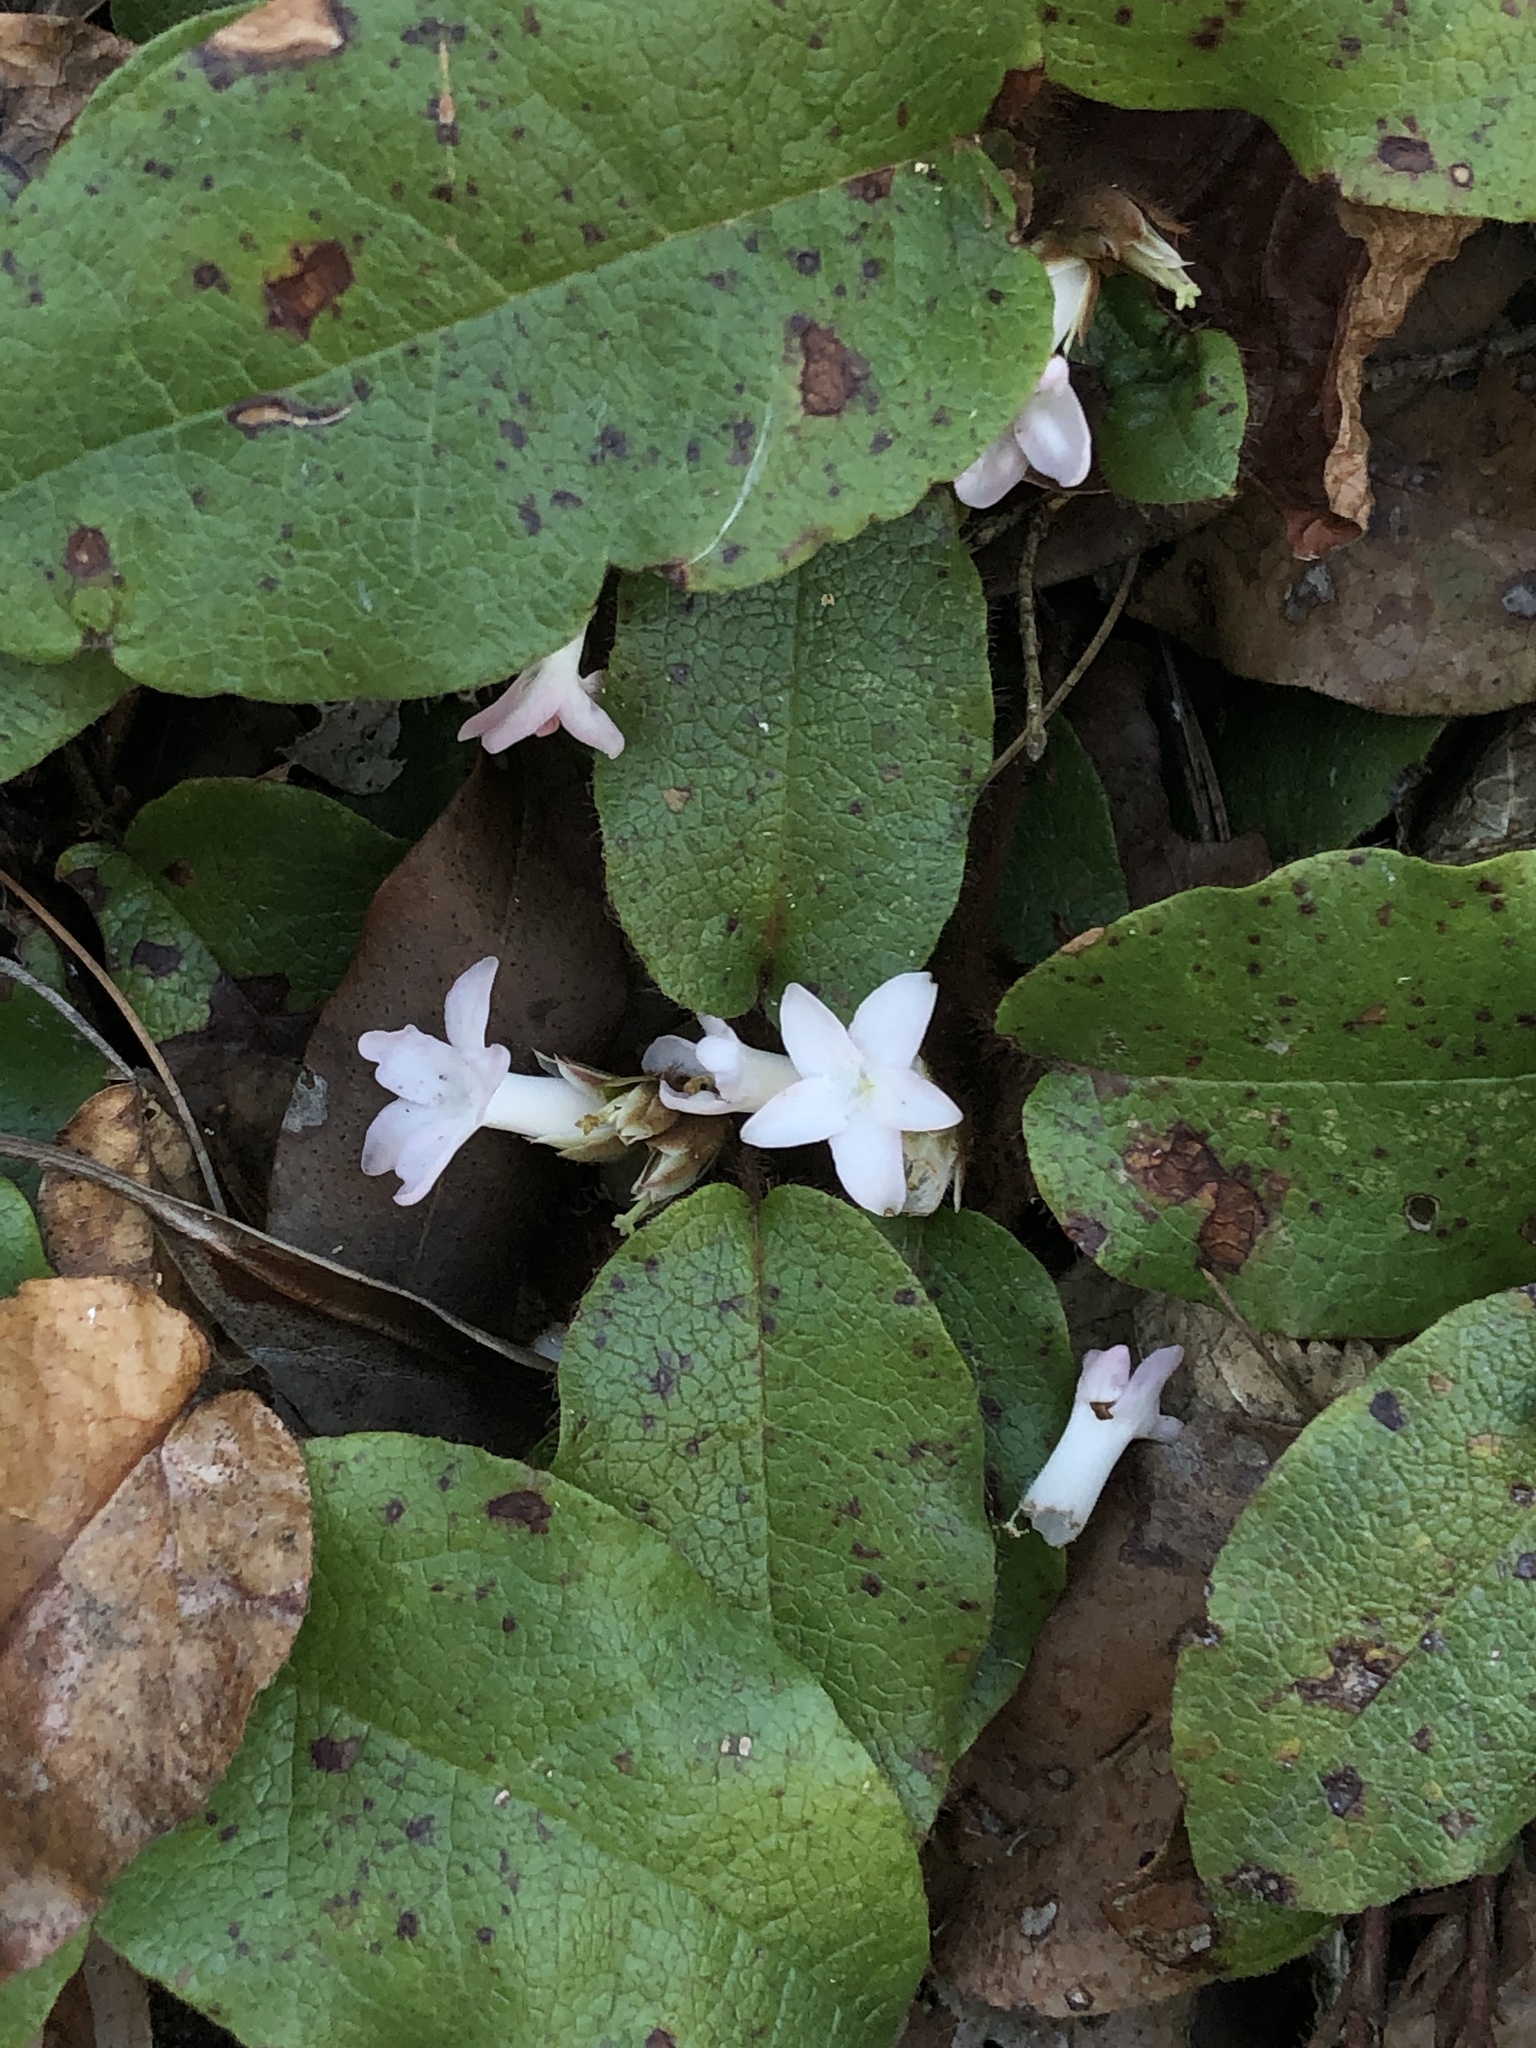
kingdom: Plantae
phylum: Tracheophyta
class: Magnoliopsida
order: Ericales
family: Ericaceae
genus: Epigaea
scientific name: Epigaea repens
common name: Gravelroot
